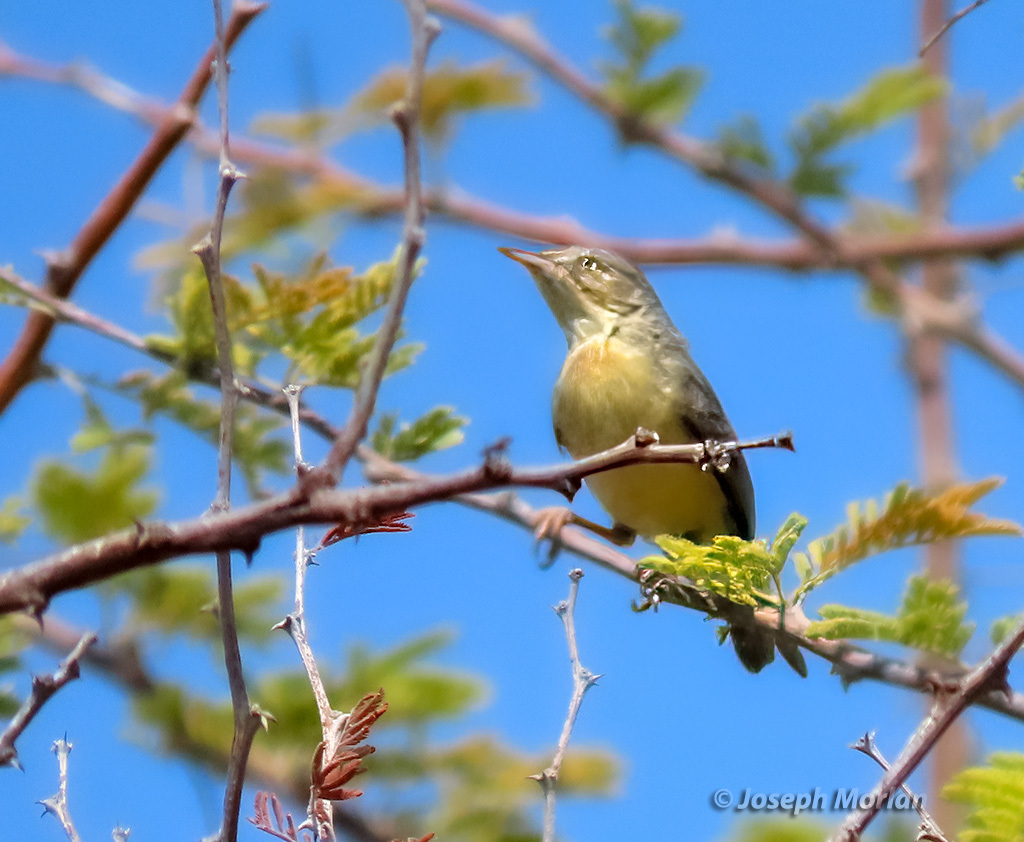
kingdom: Animalia
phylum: Chordata
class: Aves
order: Passeriformes
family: Cisticolidae
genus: Eremomela
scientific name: Eremomela usticollis
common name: Burnt-neck eremomela
